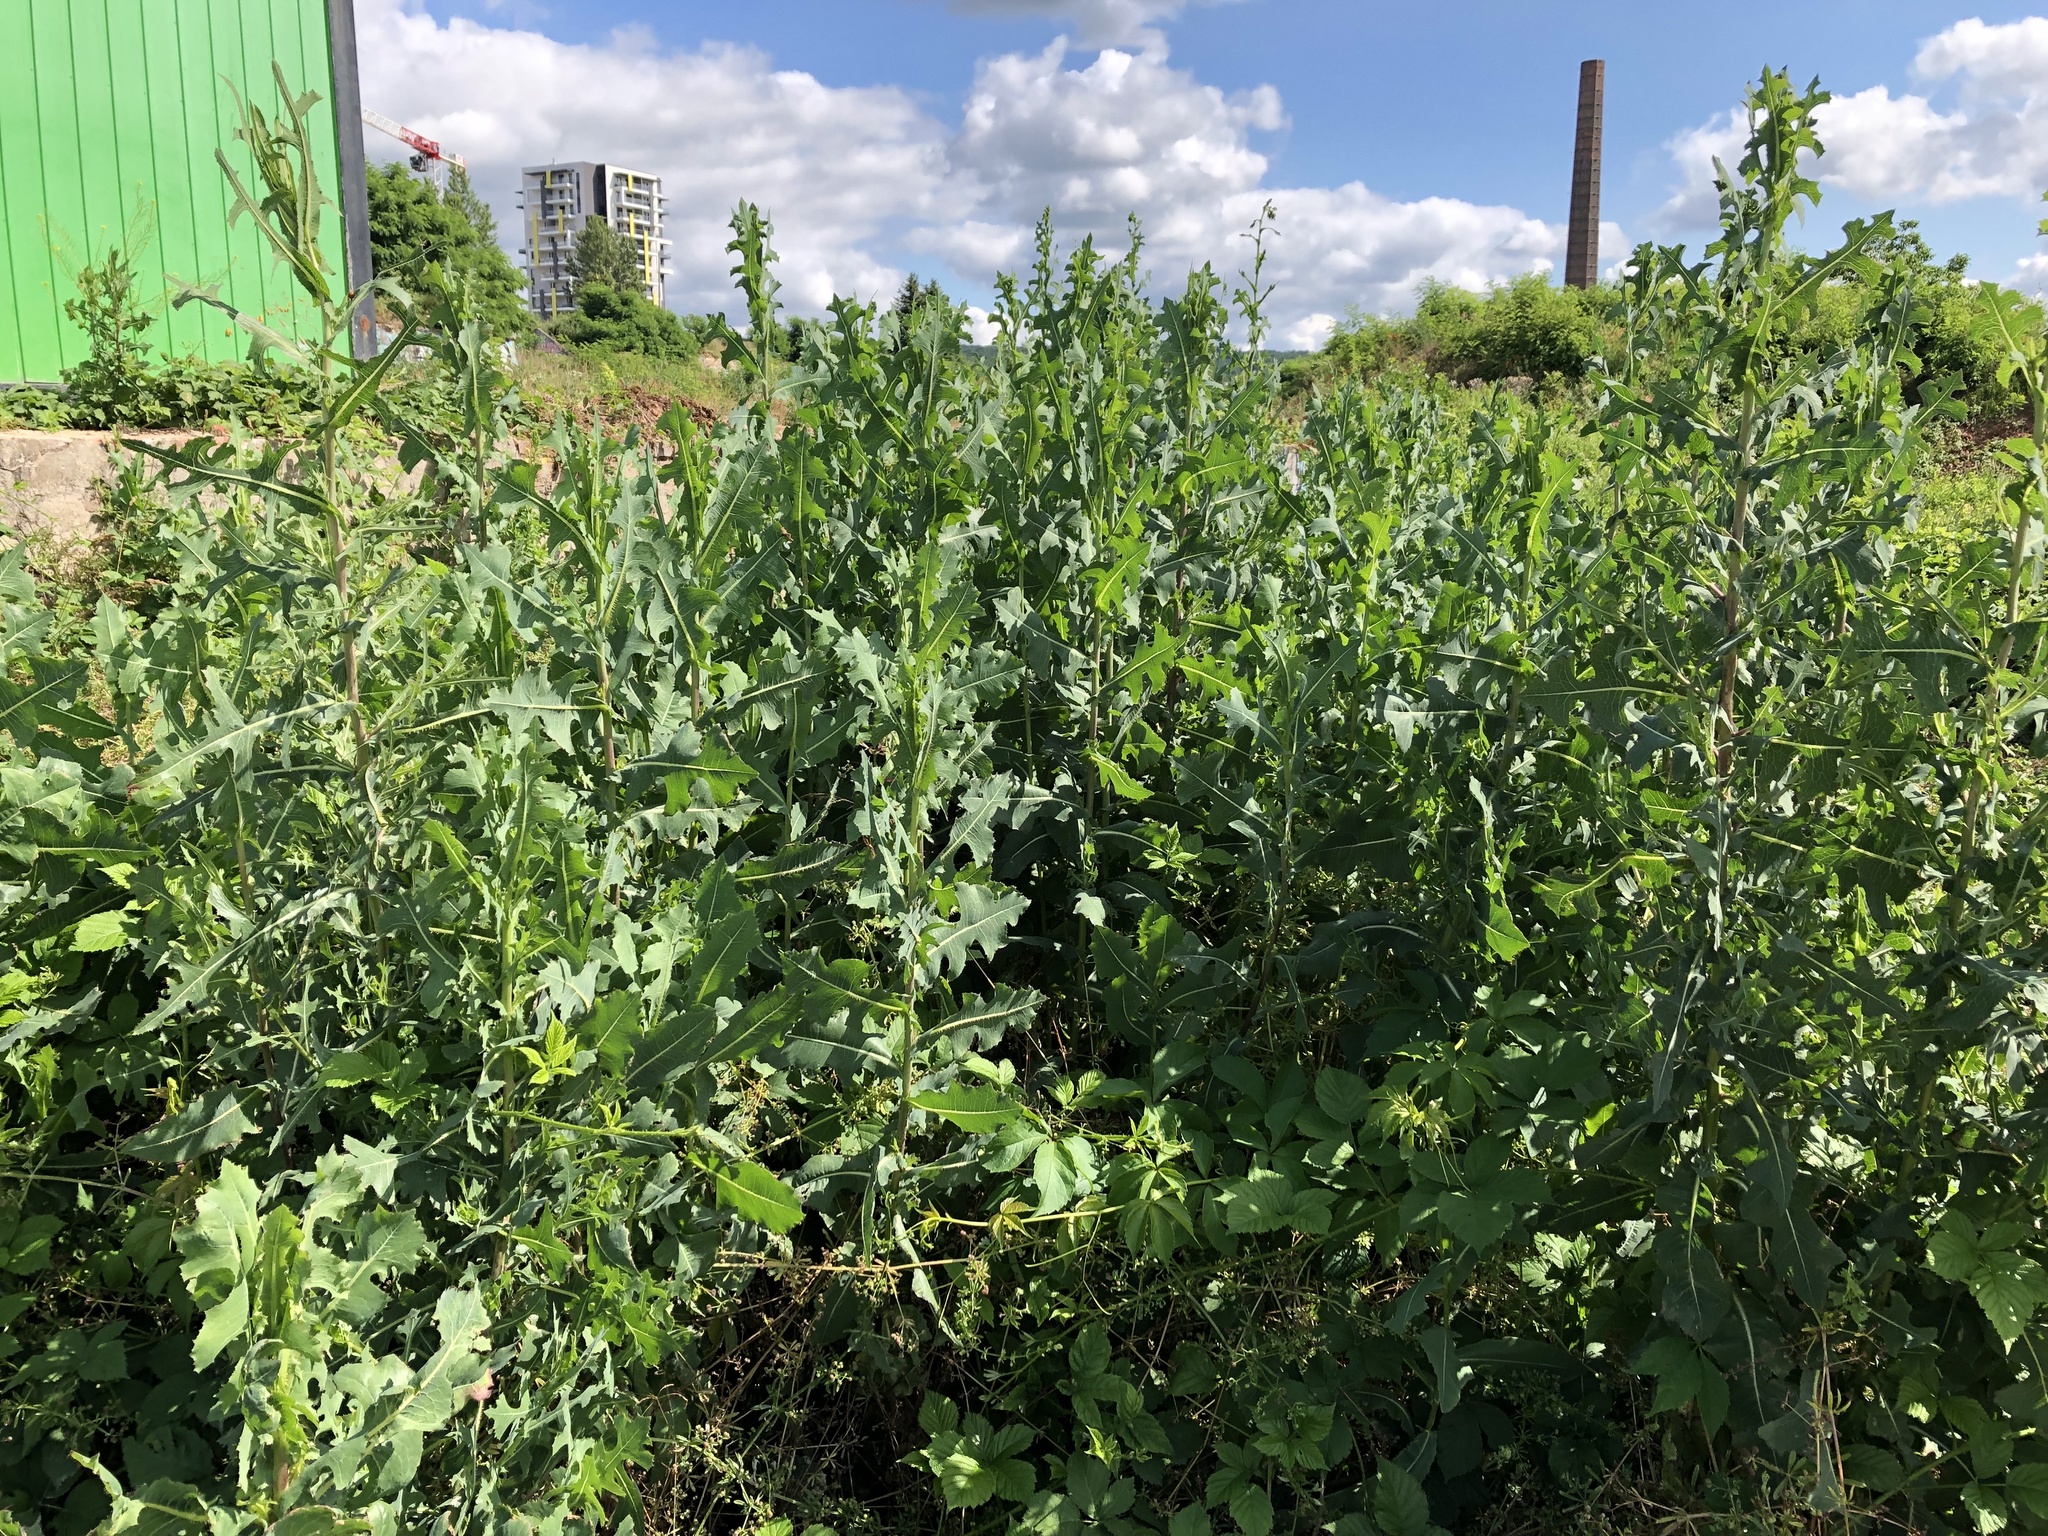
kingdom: Plantae
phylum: Tracheophyta
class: Magnoliopsida
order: Asterales
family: Asteraceae
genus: Lactuca
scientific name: Lactuca serriola
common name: Prickly lettuce
